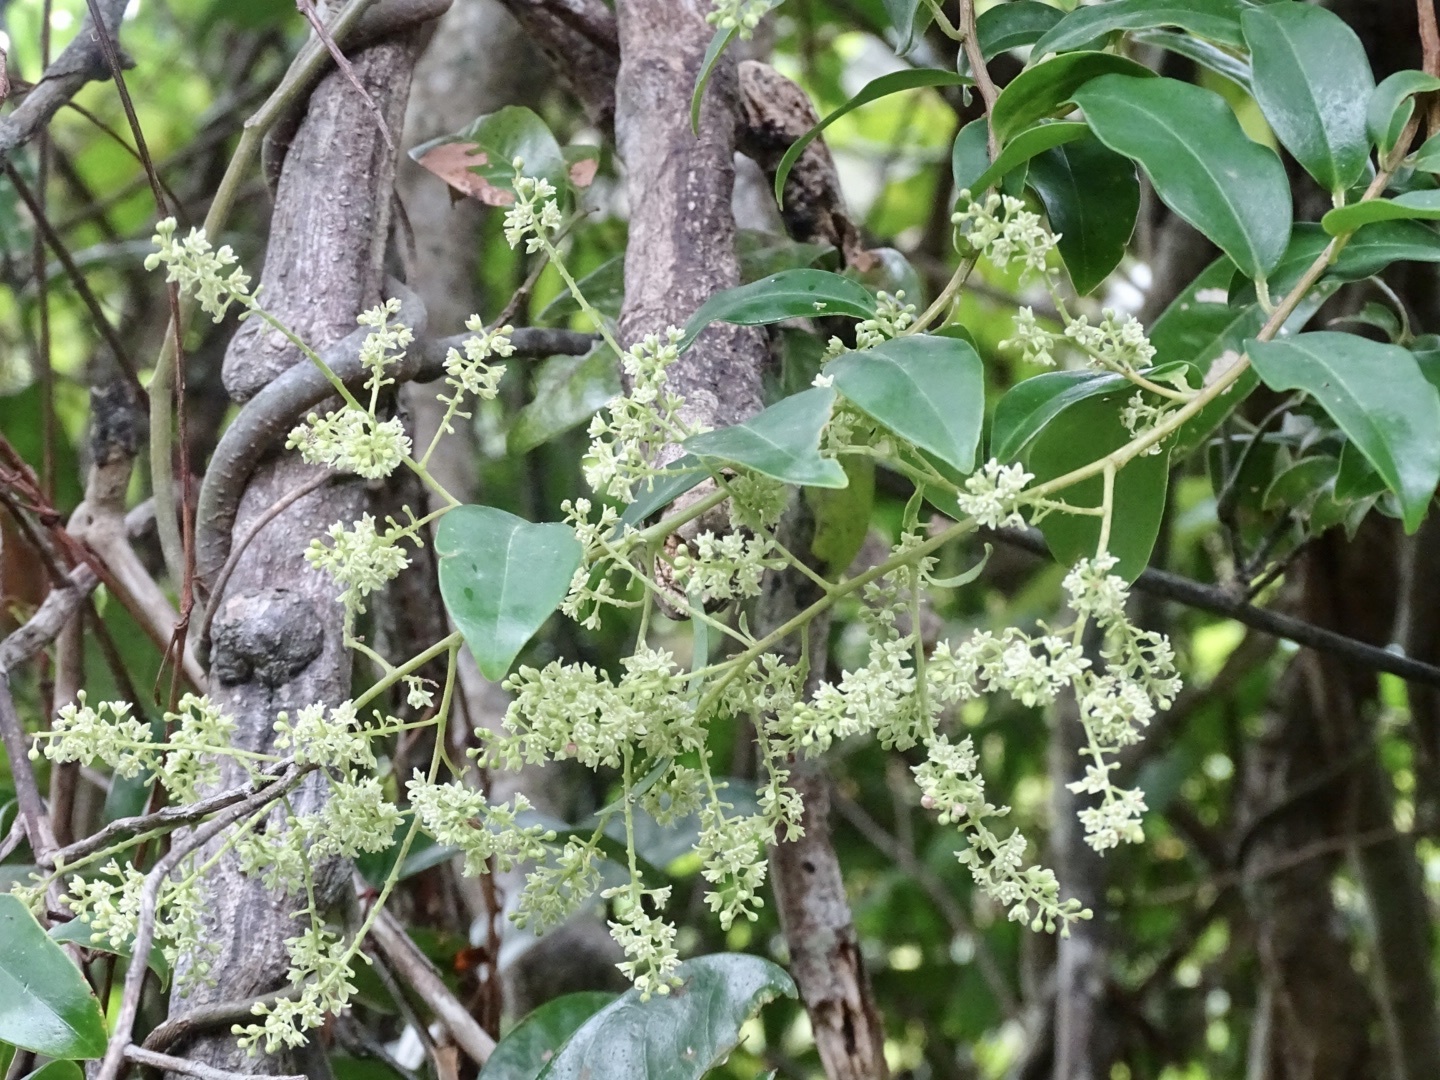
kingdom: Plantae
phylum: Tracheophyta
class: Magnoliopsida
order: Ericales
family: Primulaceae
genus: Embelia
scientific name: Embelia ribes
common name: Vidanga
